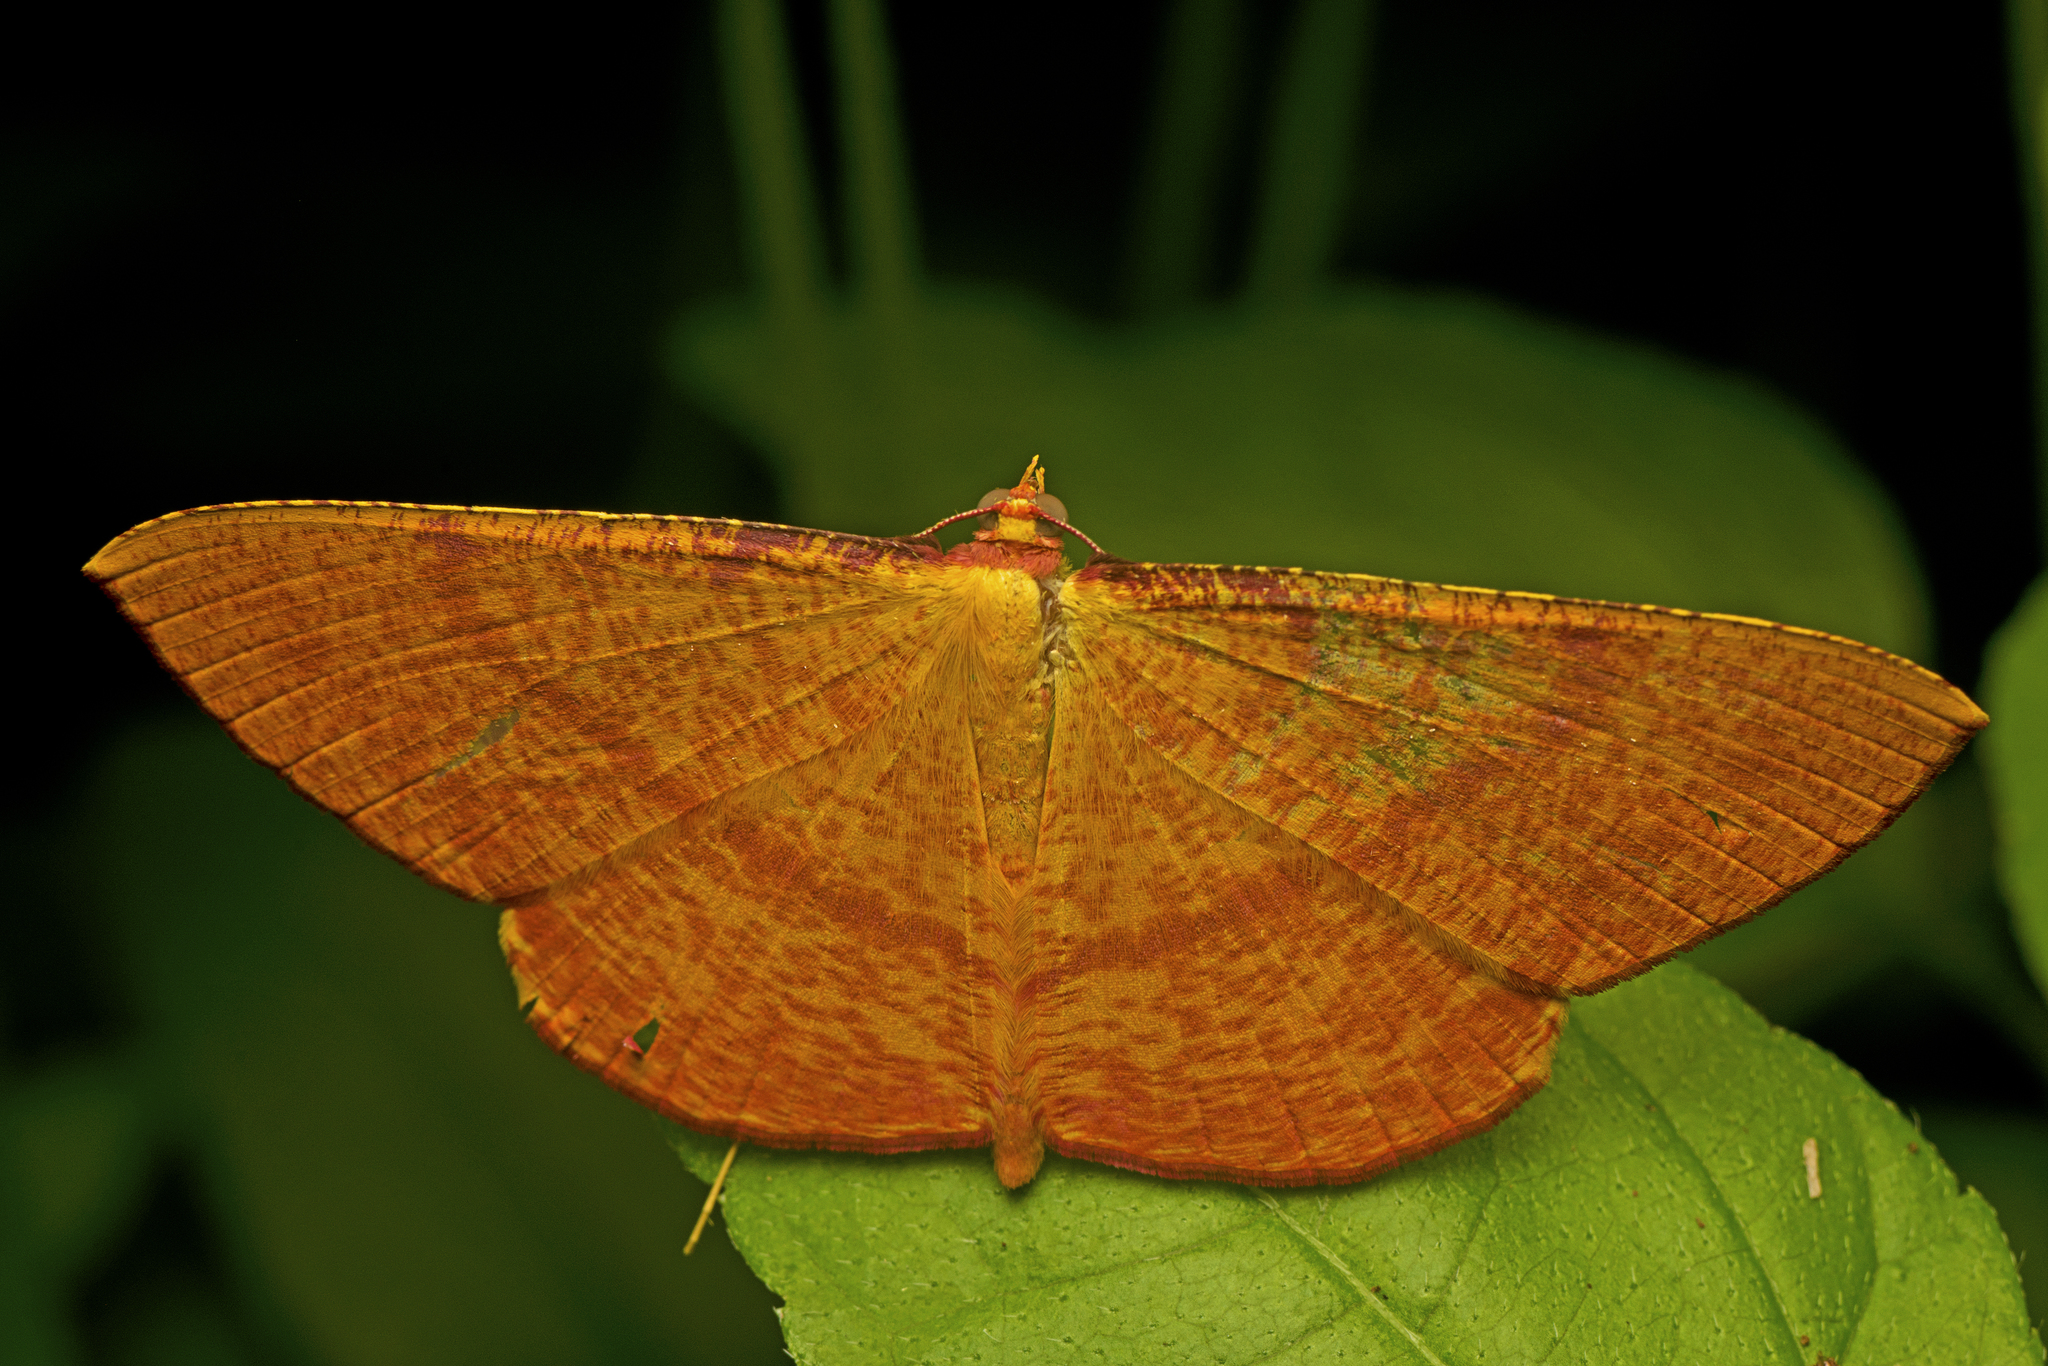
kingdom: Animalia
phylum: Arthropoda
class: Insecta
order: Lepidoptera
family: Geometridae
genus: Eumelea
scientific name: Eumelea rosalia
